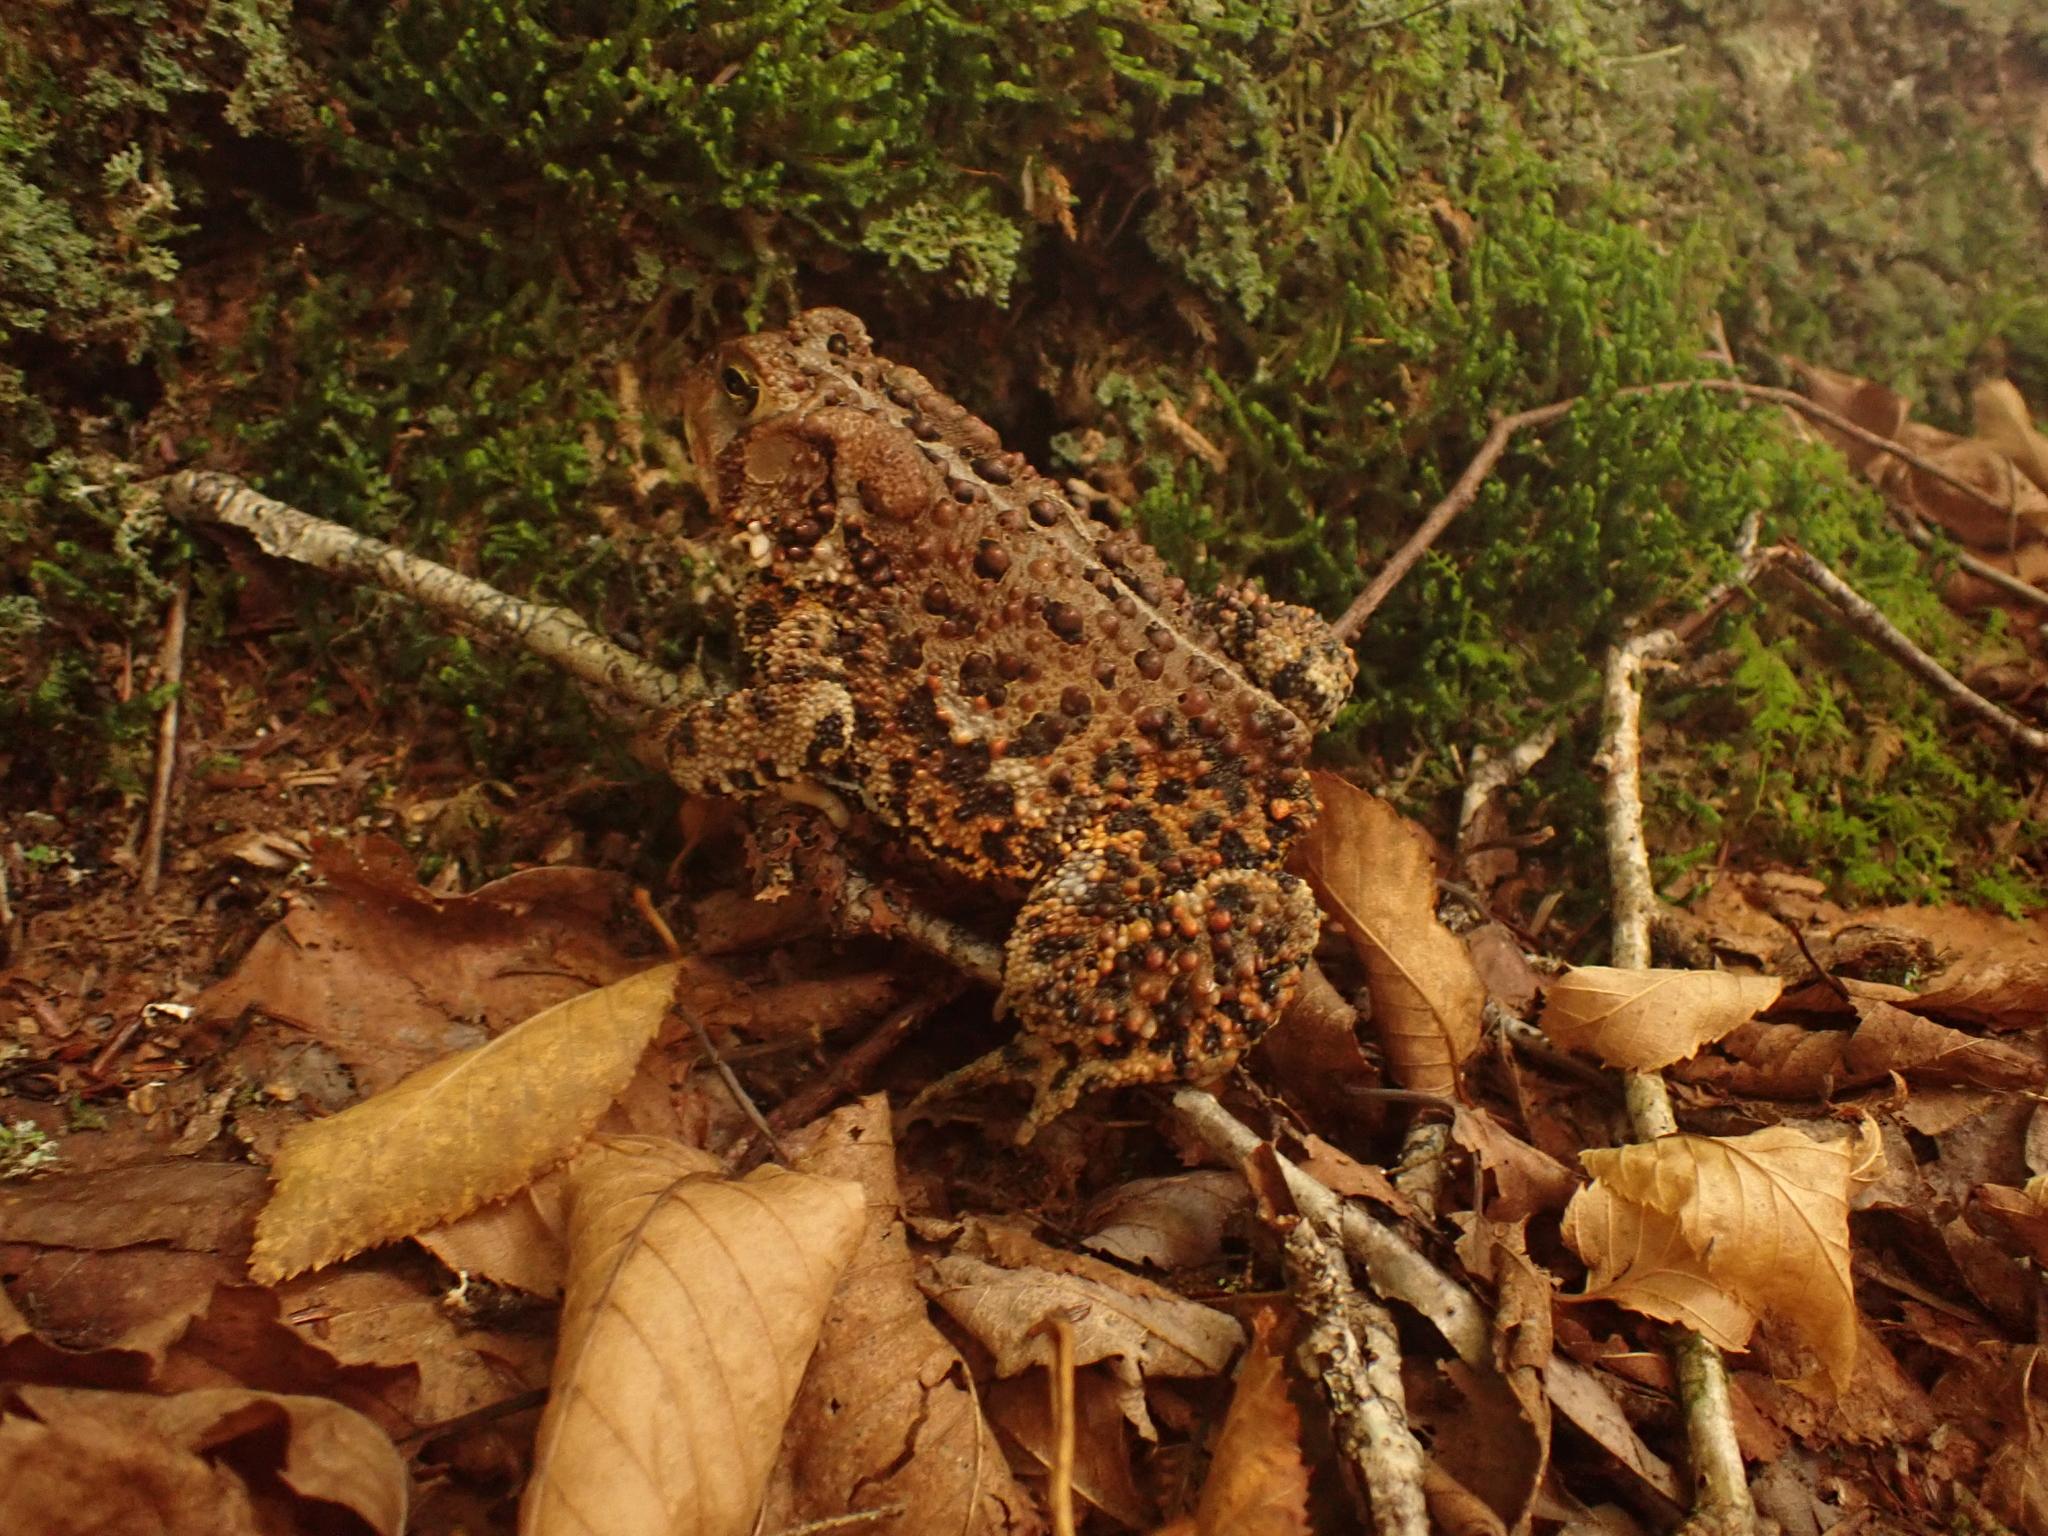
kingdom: Animalia
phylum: Chordata
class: Amphibia
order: Anura
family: Bufonidae
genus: Anaxyrus
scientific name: Anaxyrus americanus
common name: American toad
